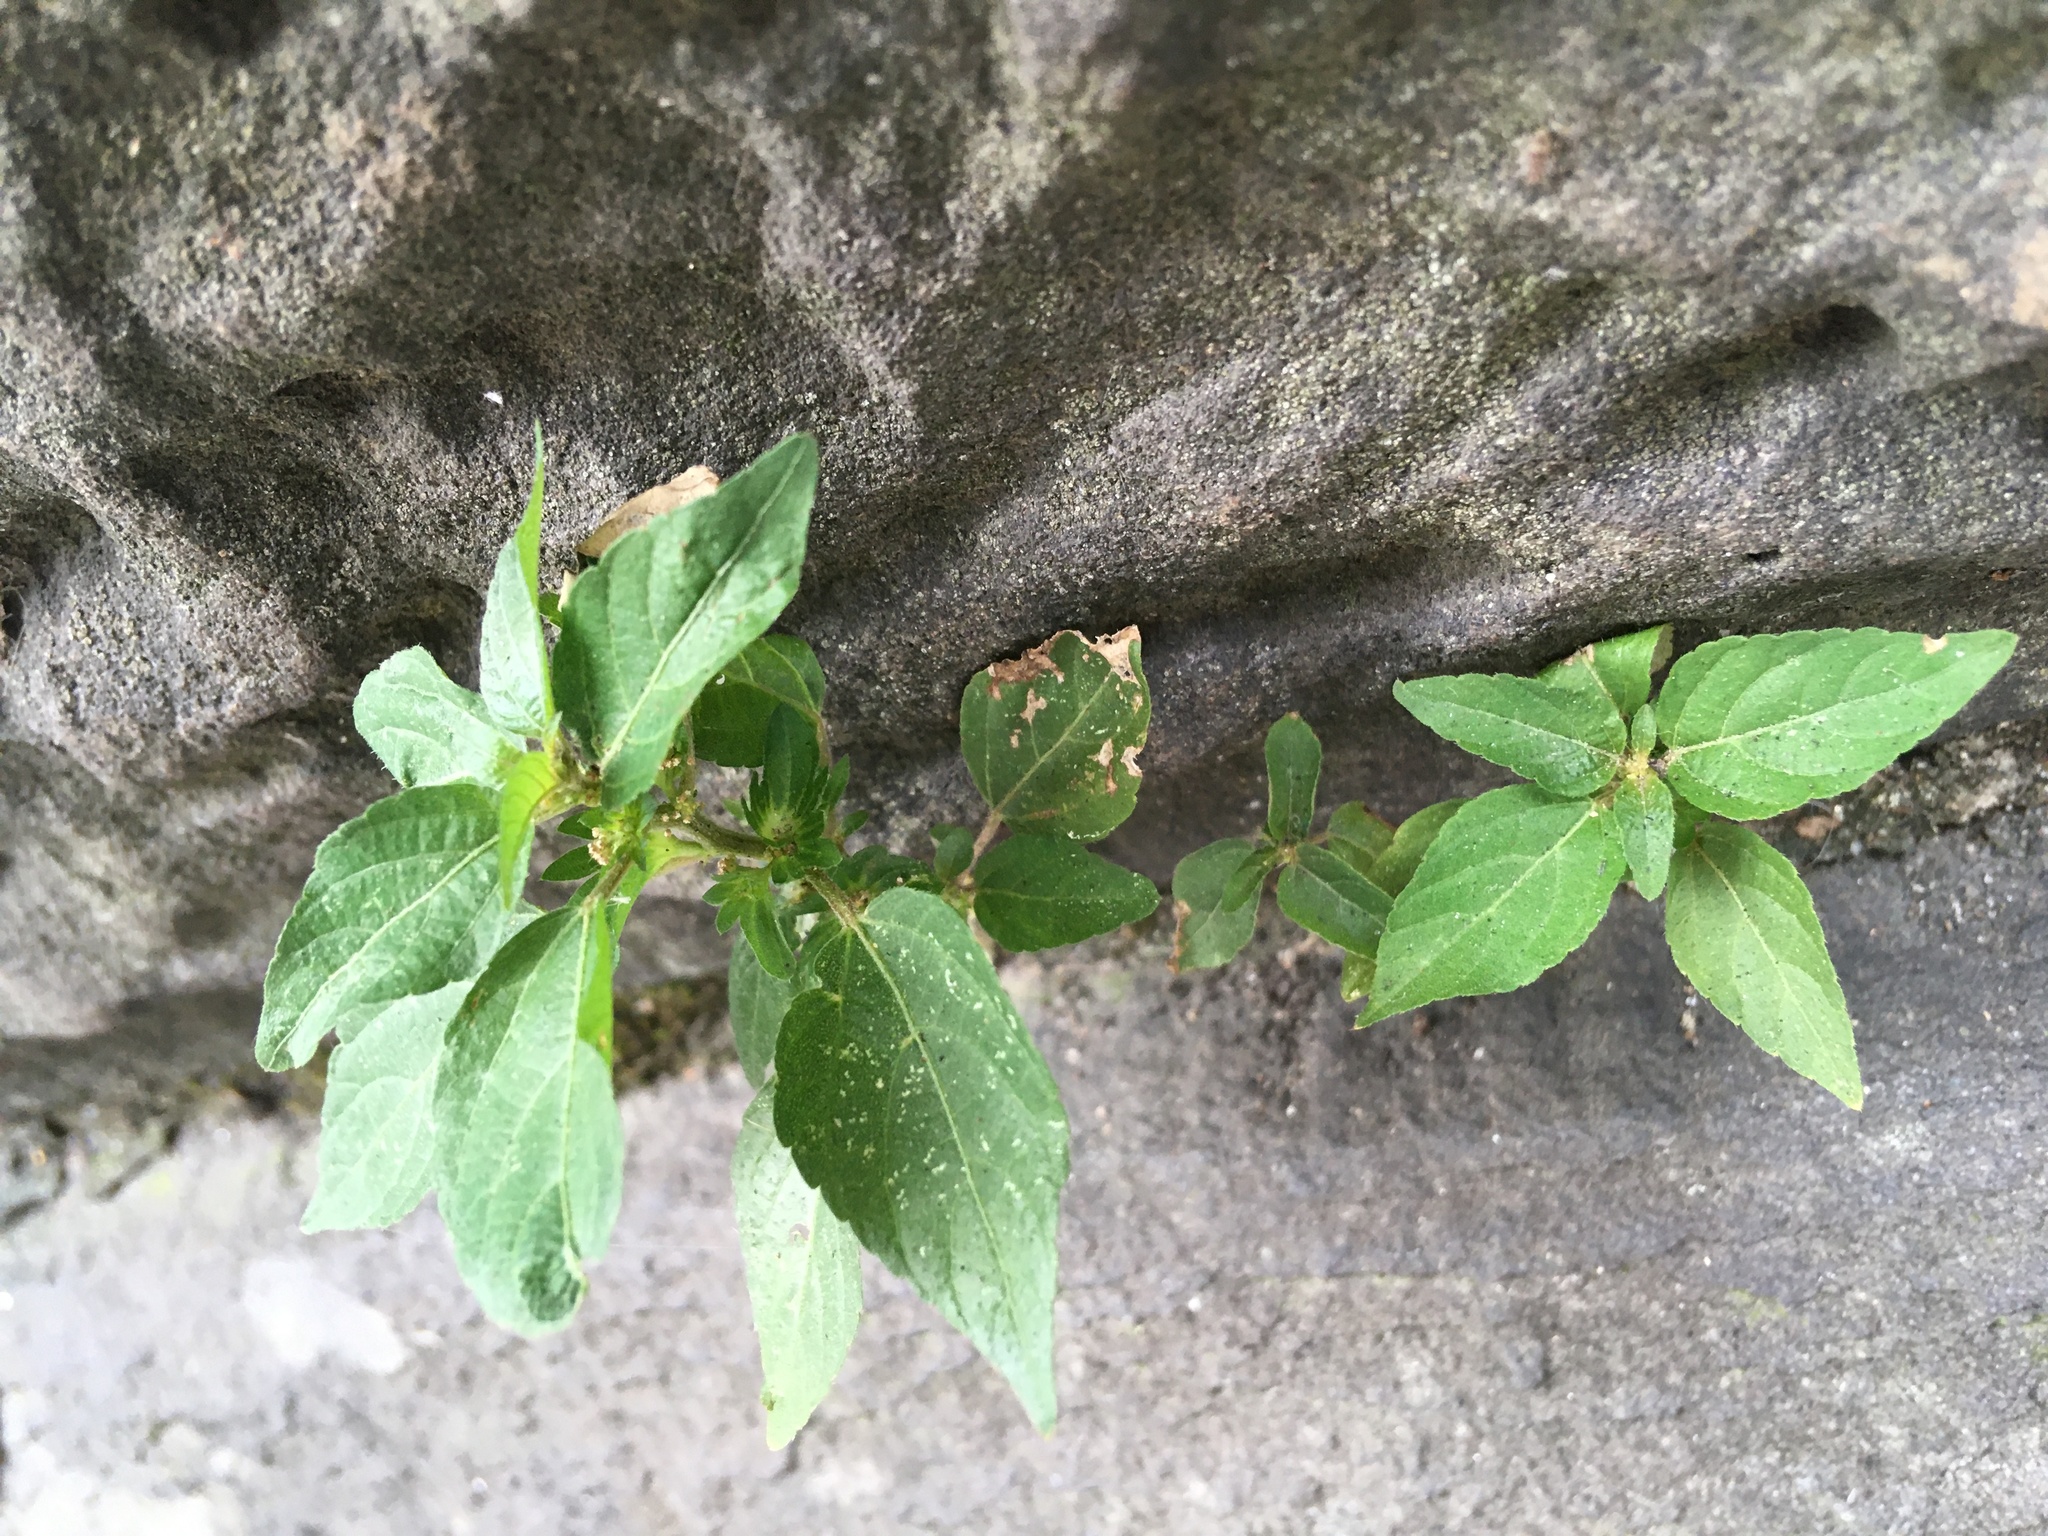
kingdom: Plantae
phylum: Tracheophyta
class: Magnoliopsida
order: Malpighiales
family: Euphorbiaceae
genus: Acalypha
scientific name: Acalypha rhomboidea
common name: Rhombic copperleaf
